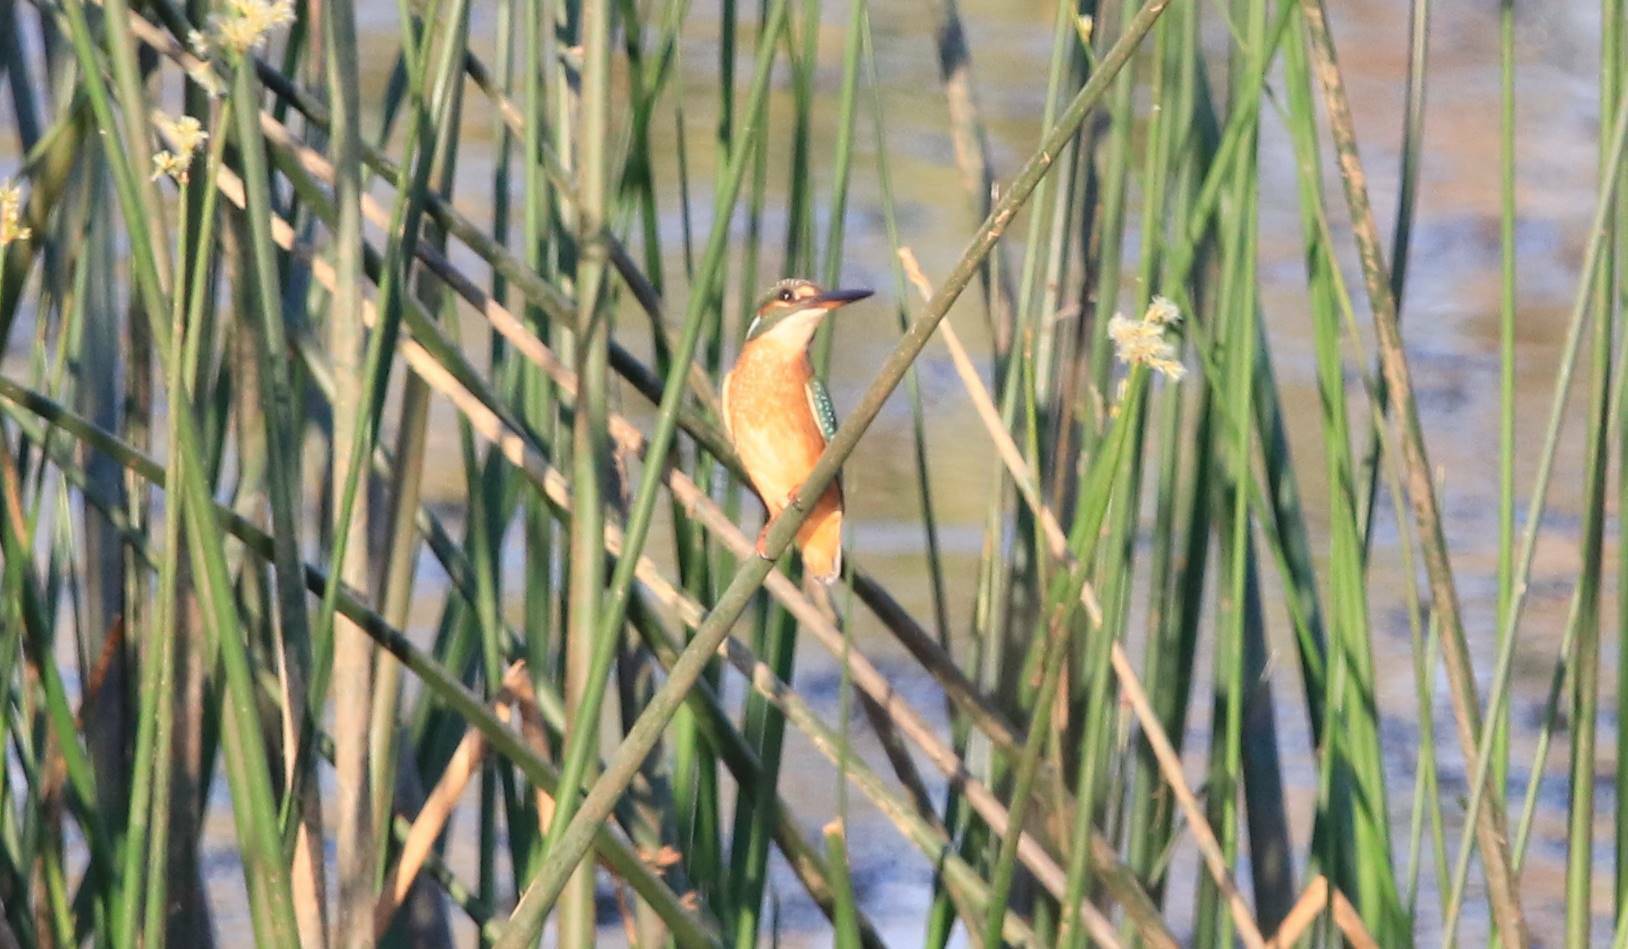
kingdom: Animalia
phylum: Chordata
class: Aves
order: Coraciiformes
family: Alcedinidae
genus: Alcedo
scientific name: Alcedo atthis
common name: Common kingfisher
